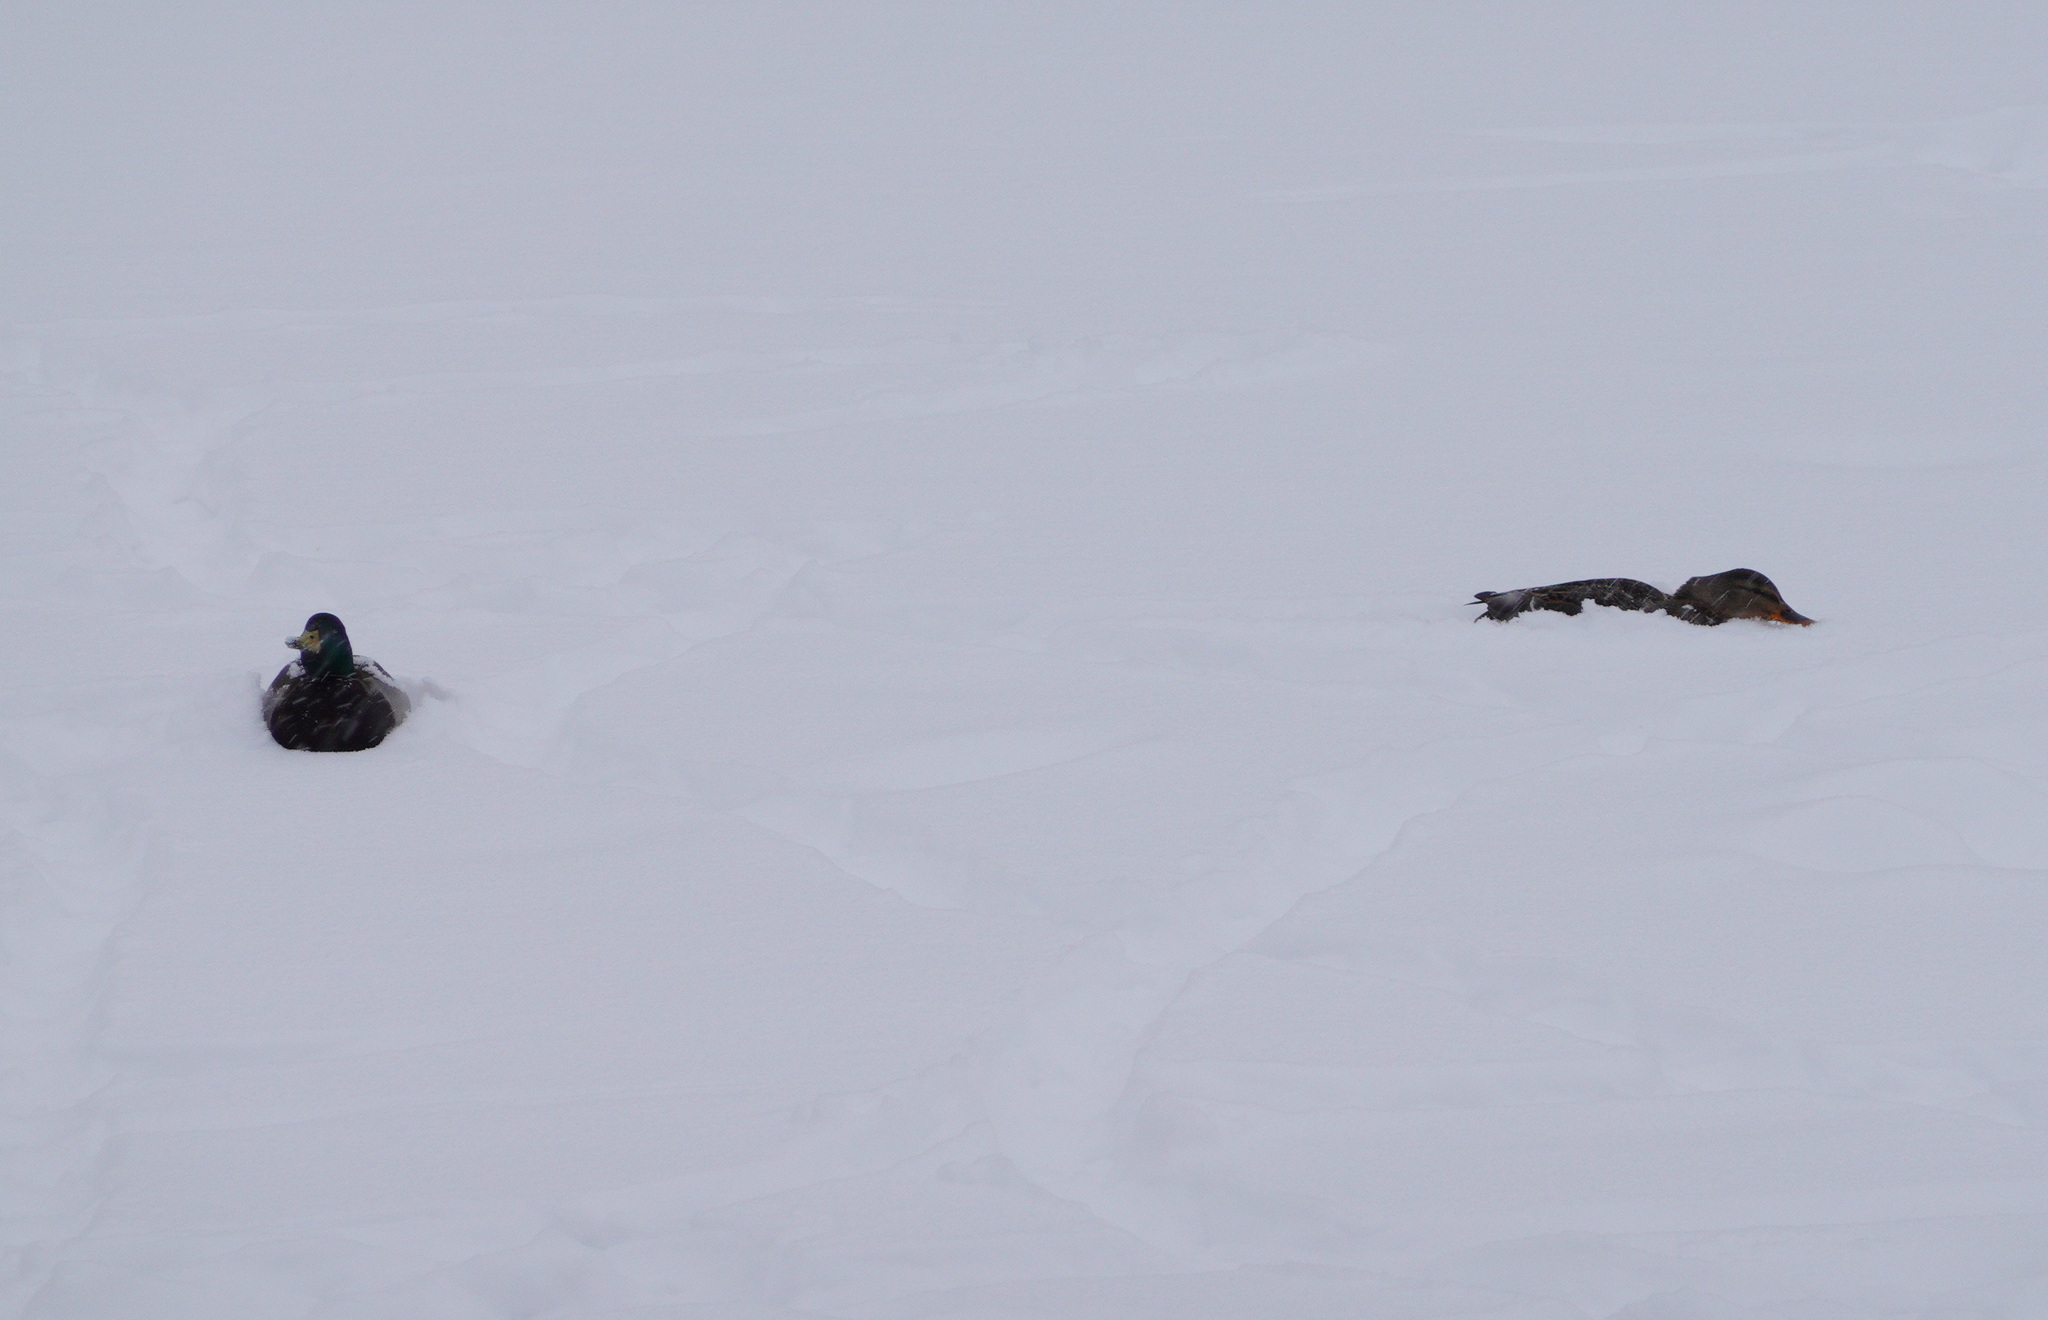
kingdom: Animalia
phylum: Chordata
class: Aves
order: Anseriformes
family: Anatidae
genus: Anas
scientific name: Anas platyrhynchos
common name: Mallard
